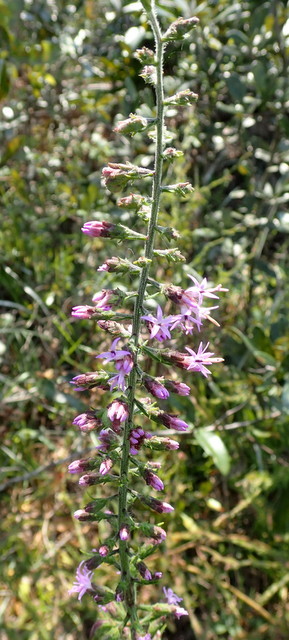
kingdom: Plantae
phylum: Tracheophyta
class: Magnoliopsida
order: Asterales
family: Asteraceae
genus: Liatris
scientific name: Liatris gracilis
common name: Slender gayfeather
